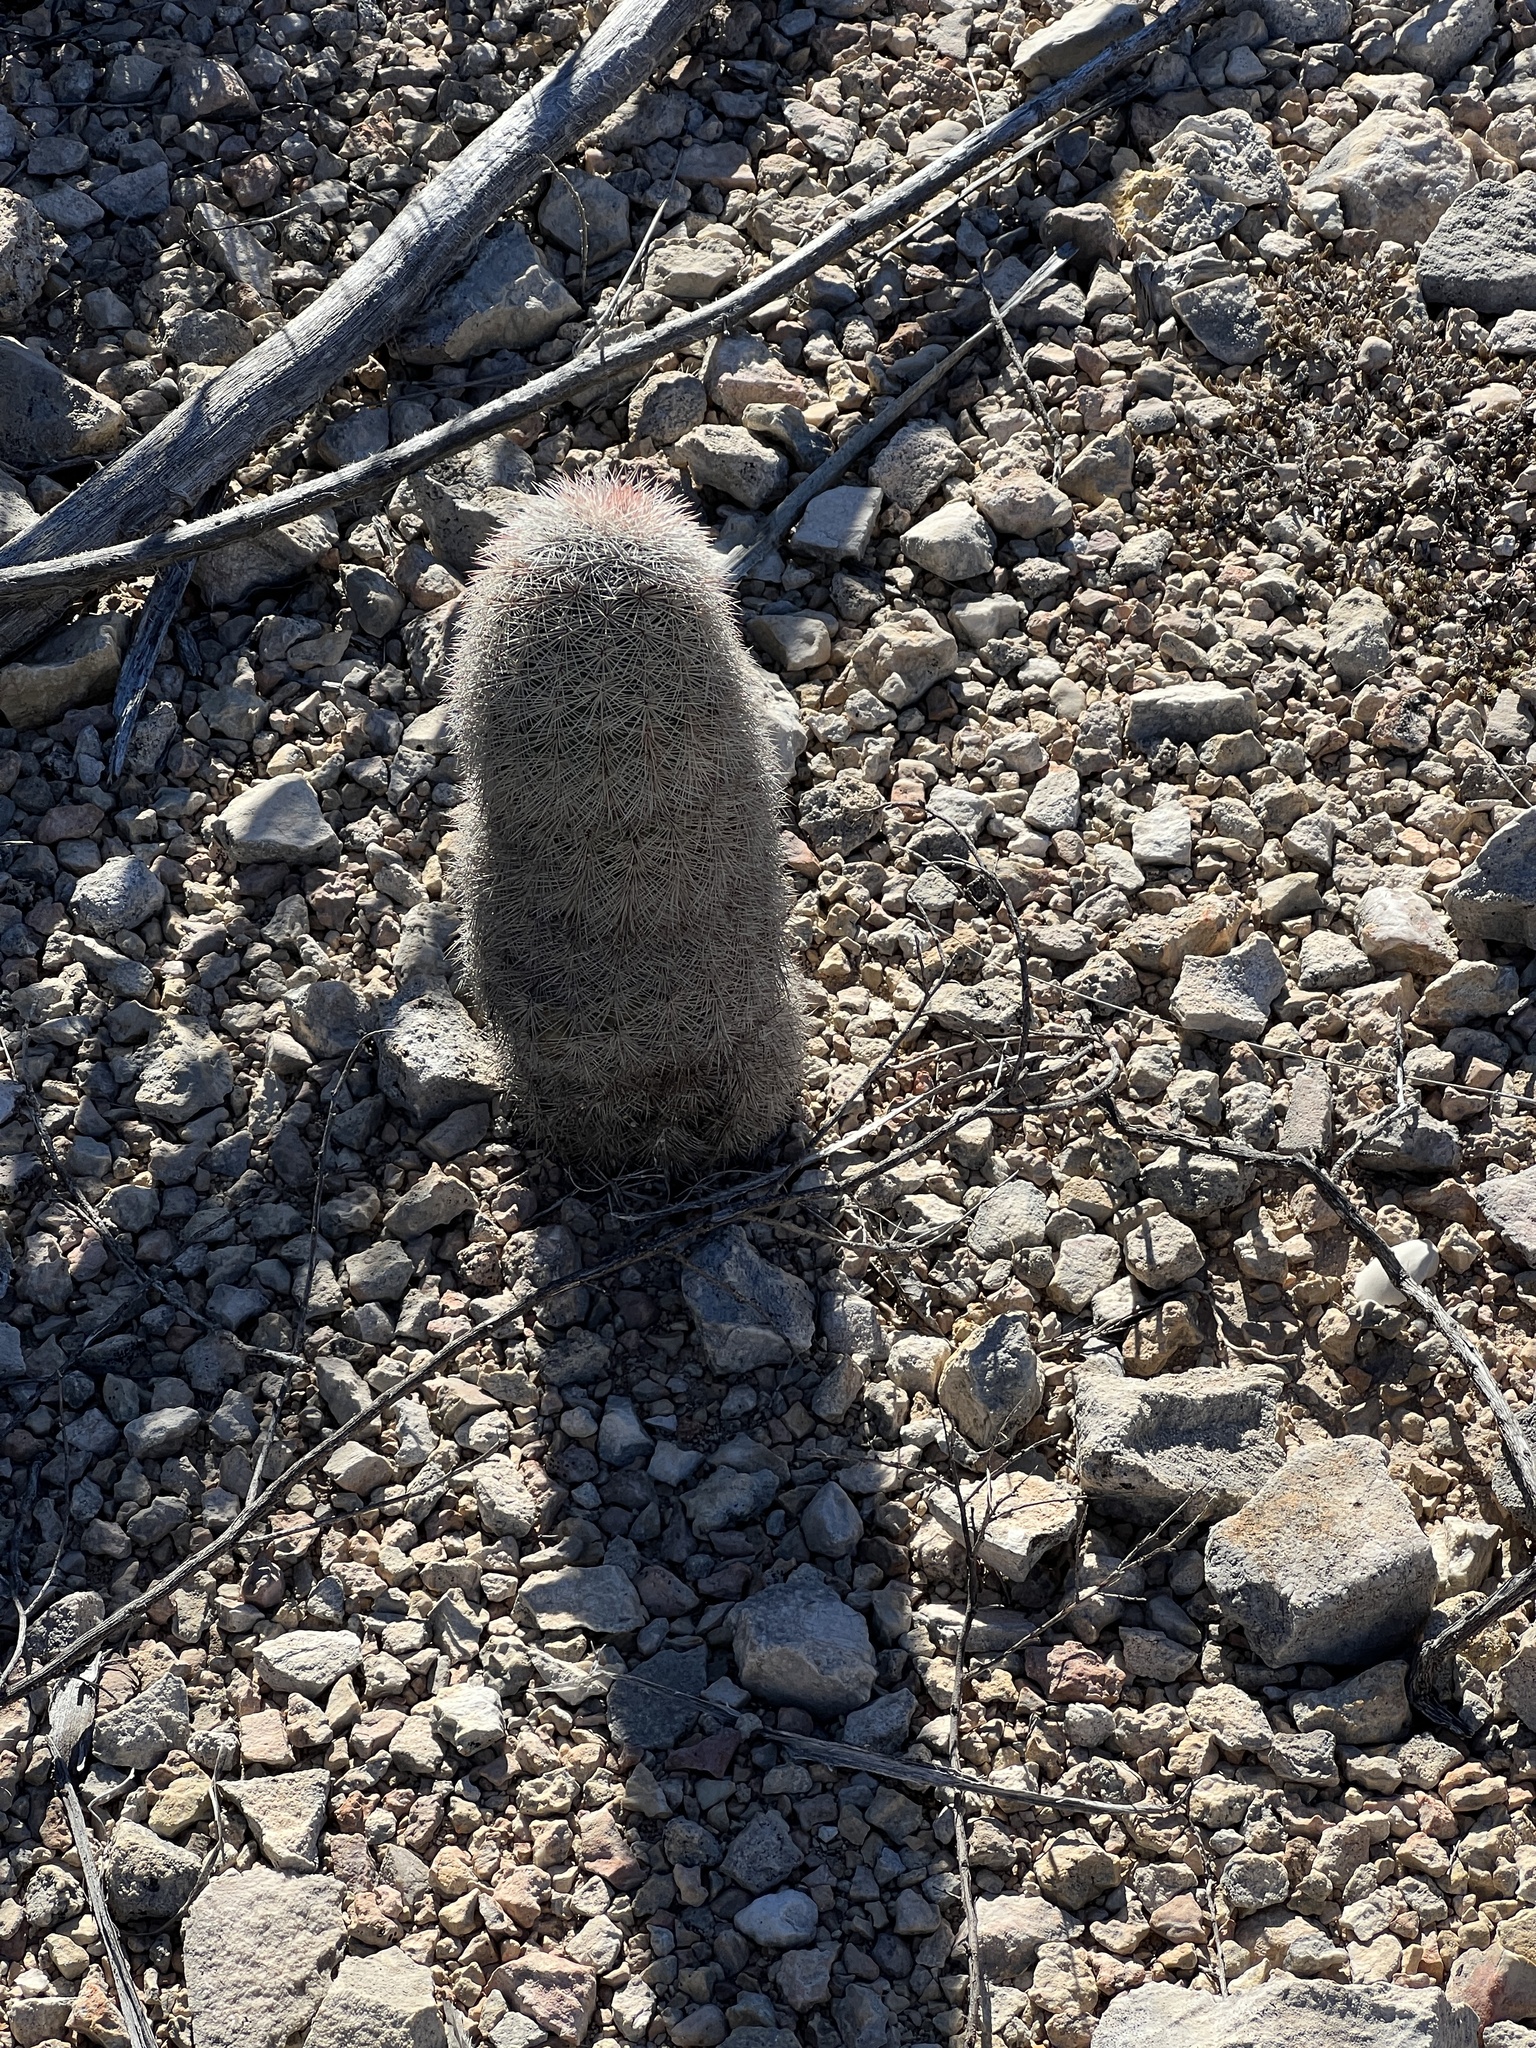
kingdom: Plantae
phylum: Tracheophyta
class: Magnoliopsida
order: Caryophyllales
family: Cactaceae
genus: Echinocereus
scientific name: Echinocereus dasyacanthus
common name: Spiny hedgehog cactus
